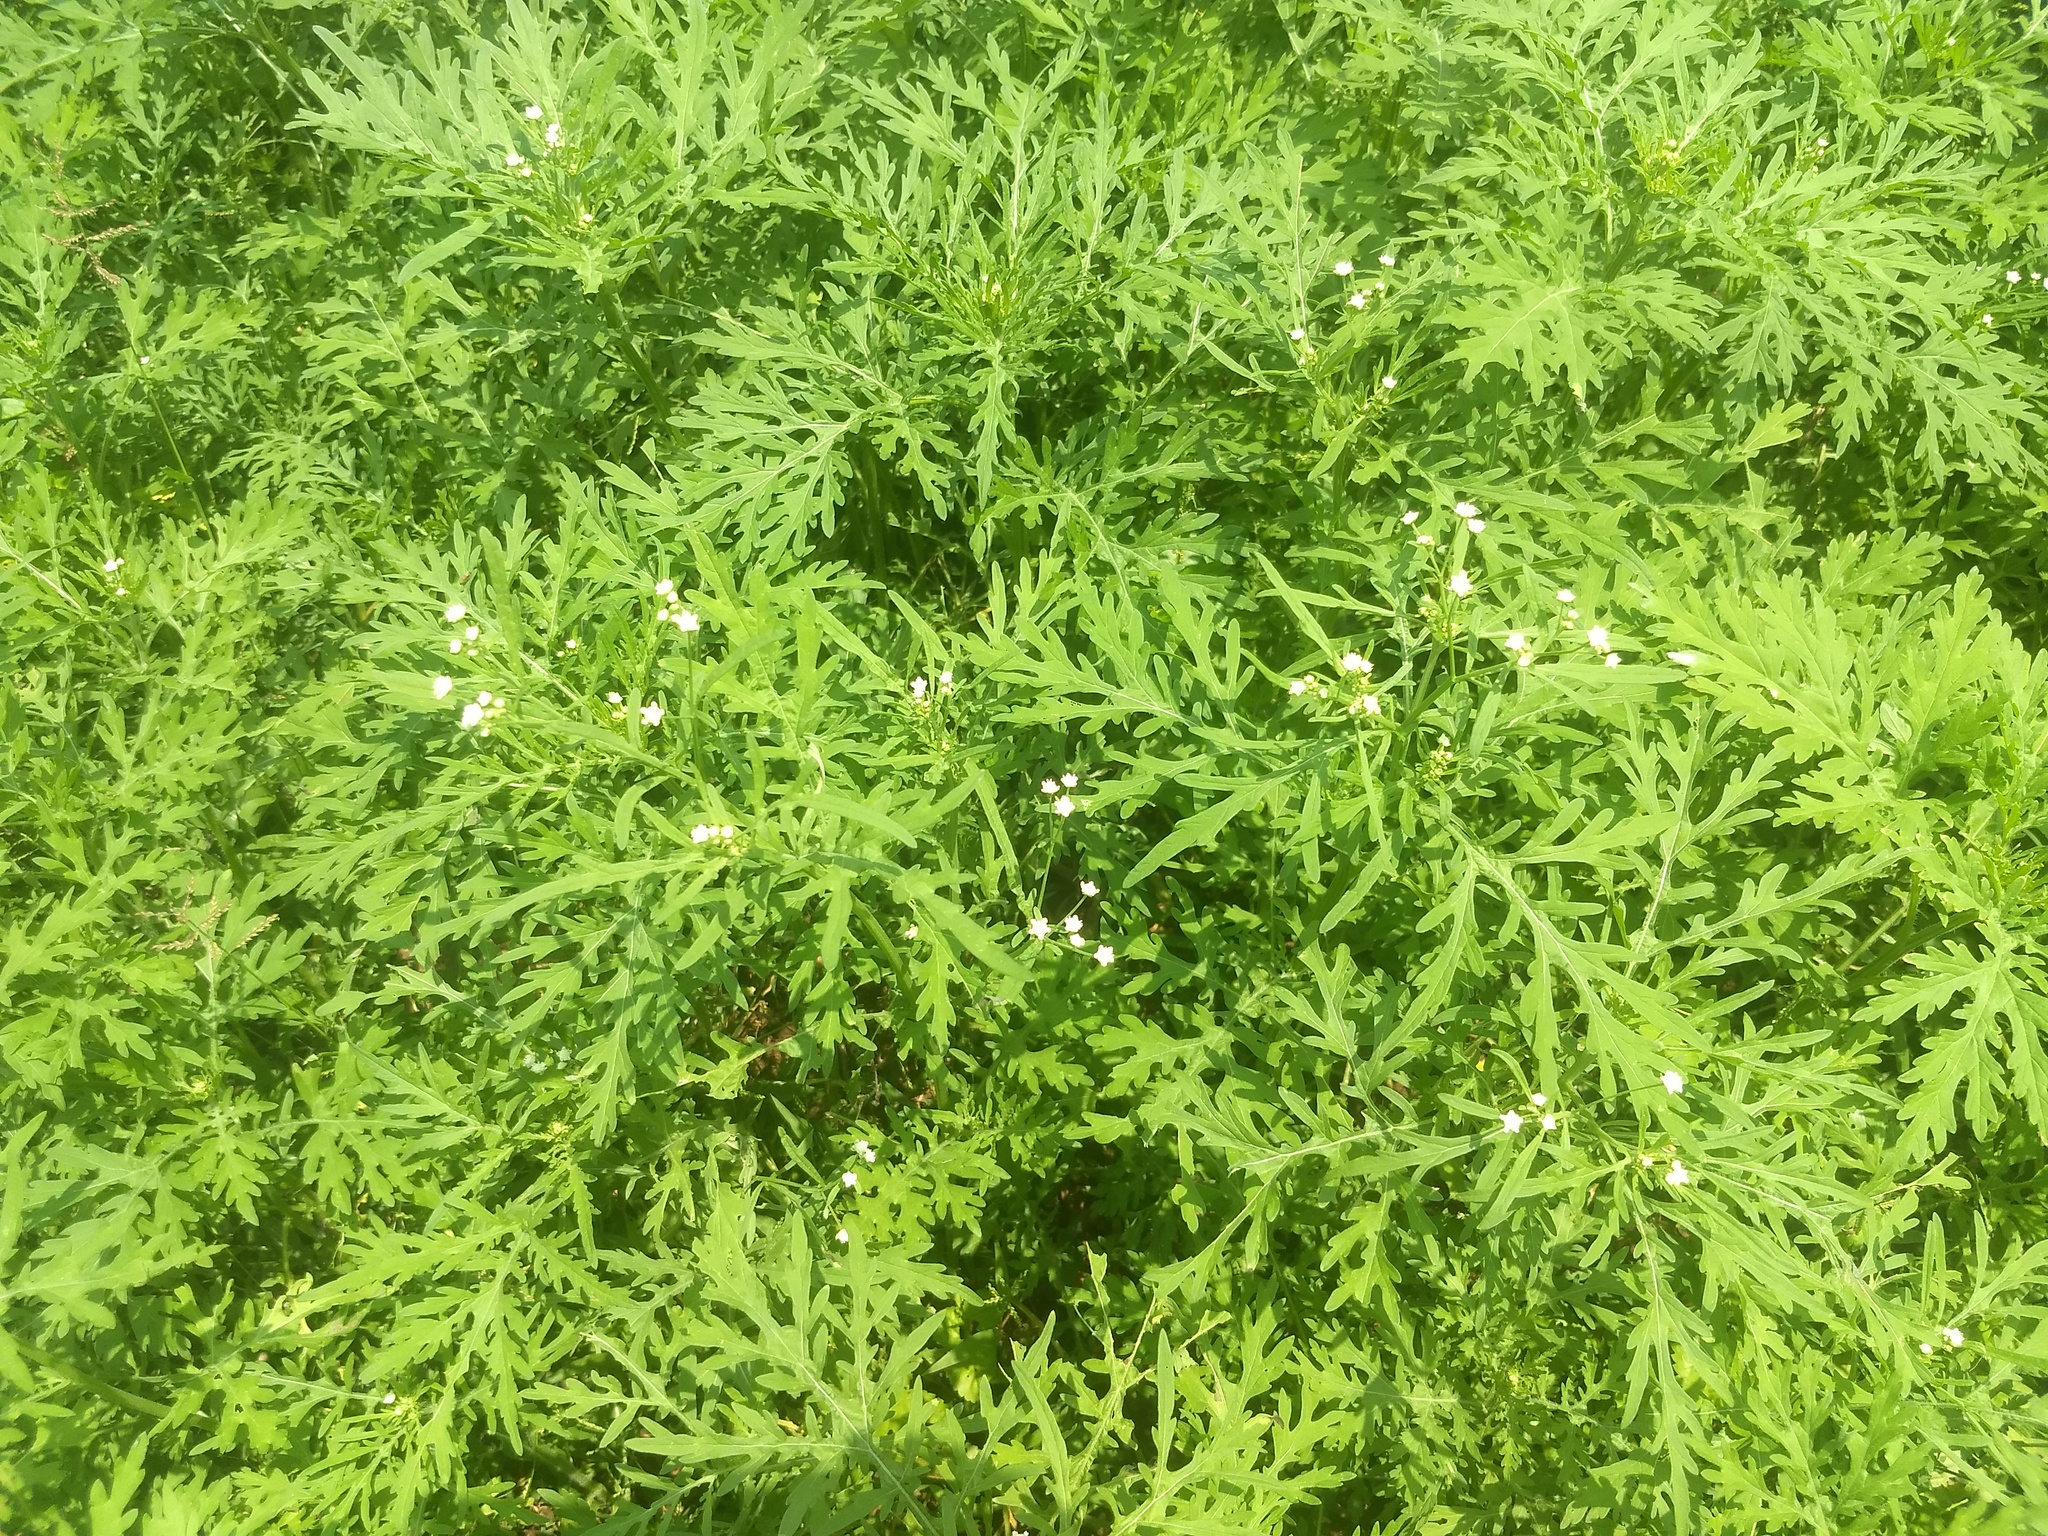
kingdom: Plantae
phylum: Tracheophyta
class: Magnoliopsida
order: Asterales
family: Asteraceae
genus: Parthenium
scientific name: Parthenium hysterophorus
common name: Santa maria feverfew
